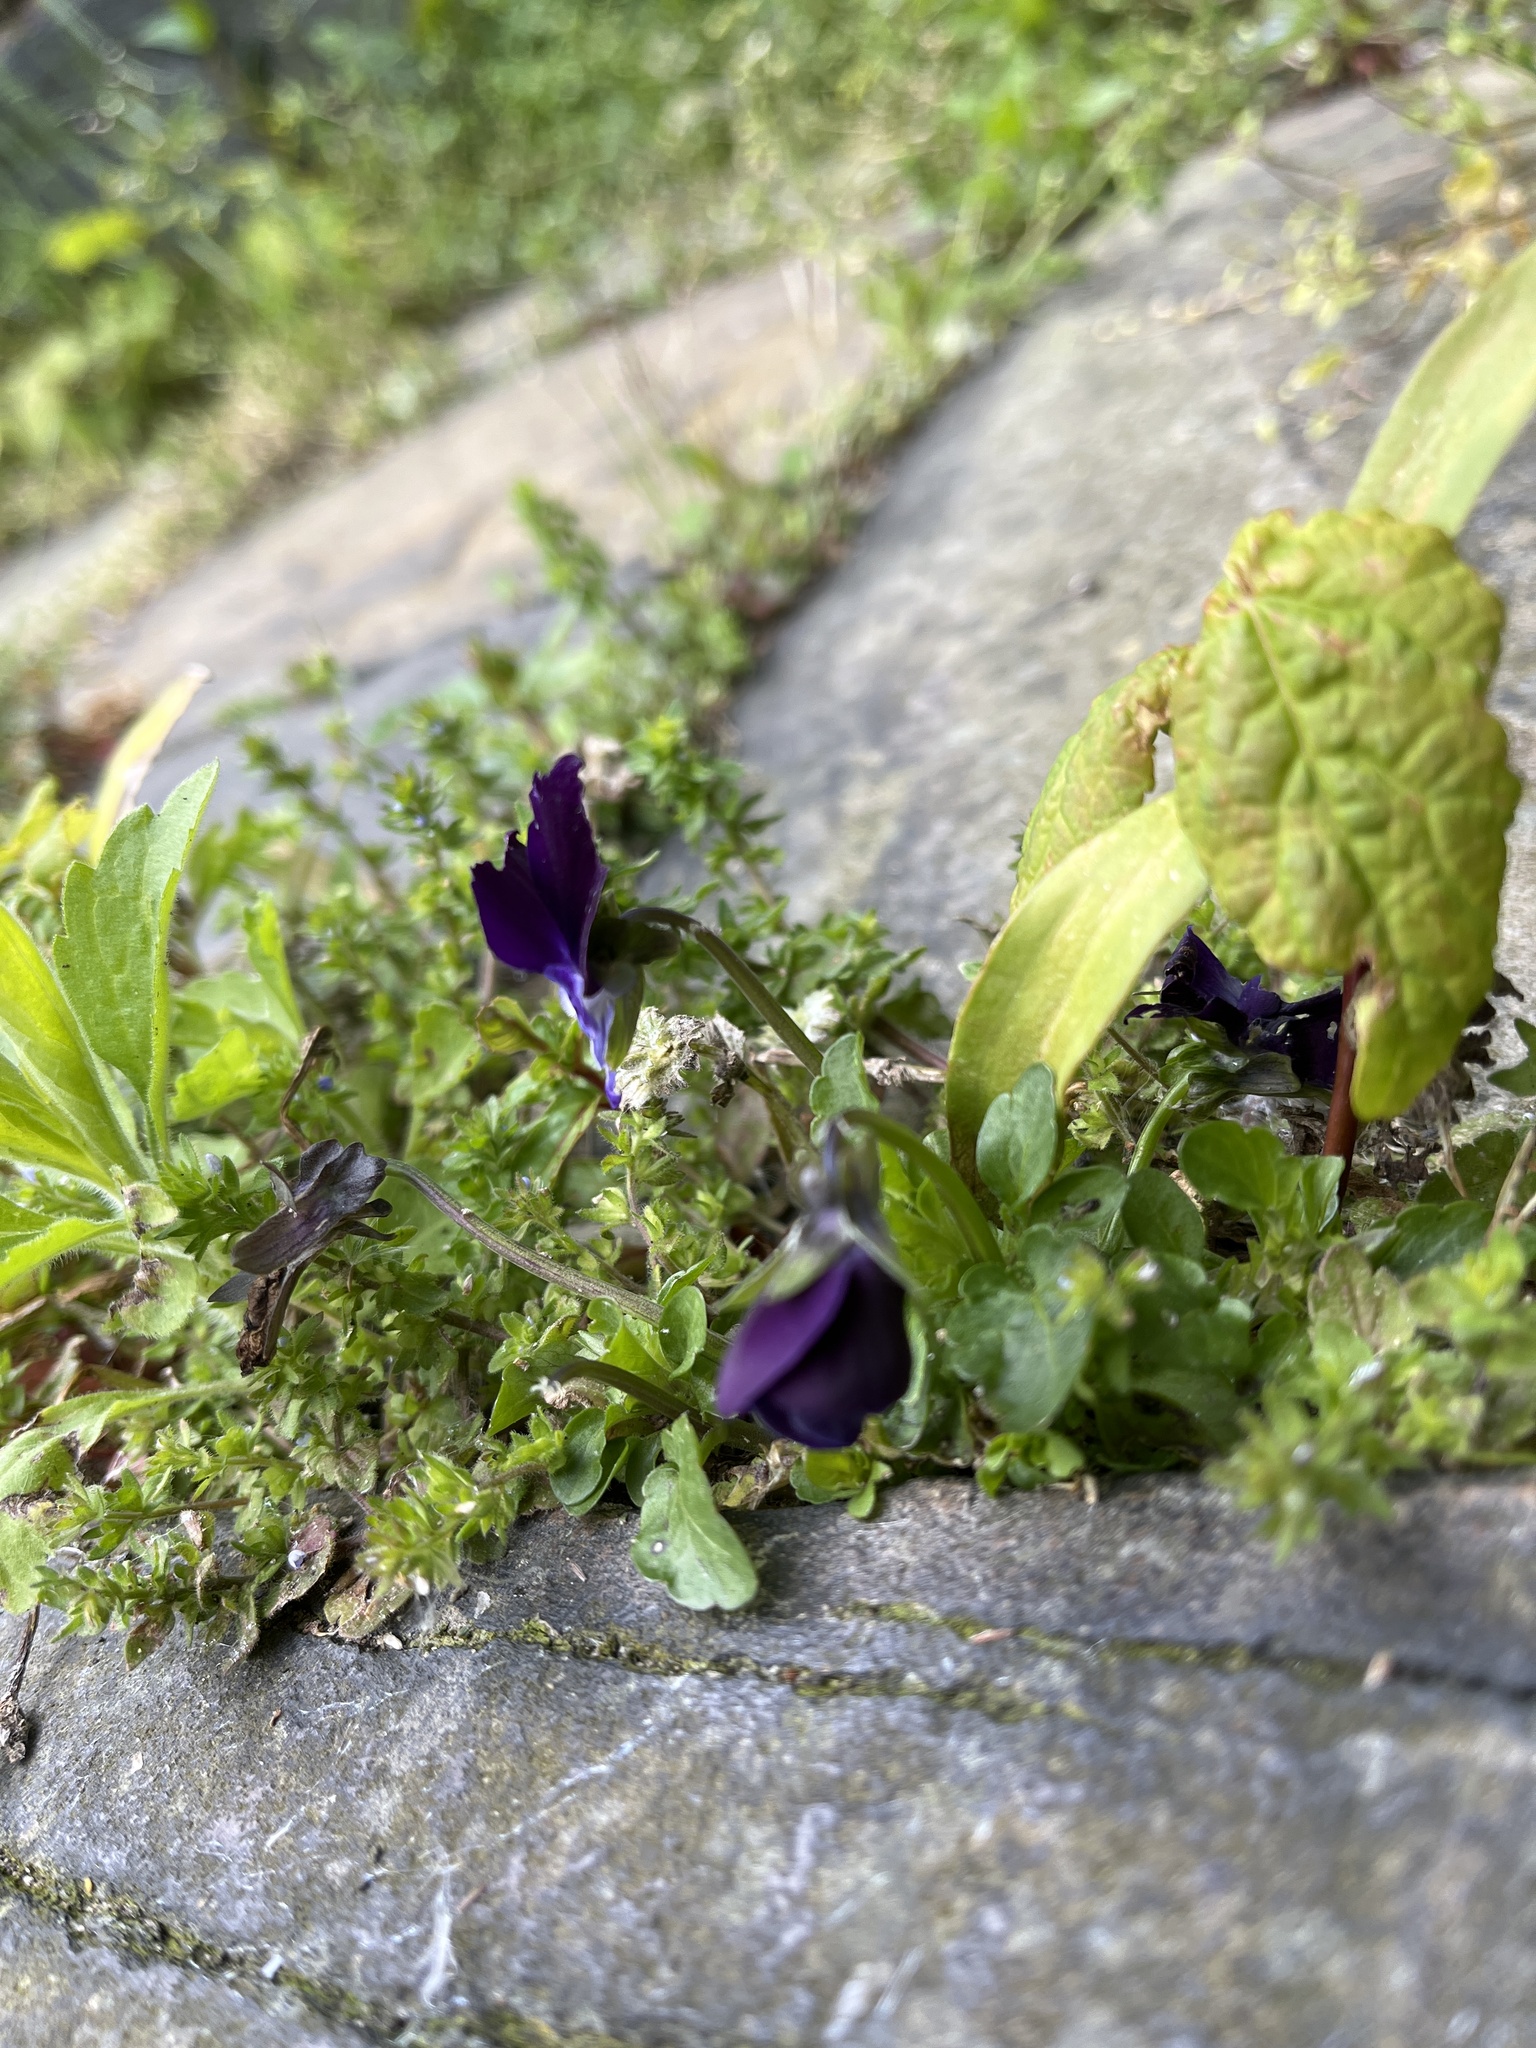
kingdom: Plantae
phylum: Tracheophyta
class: Magnoliopsida
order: Malpighiales
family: Violaceae
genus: Viola
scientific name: Viola wittrockiana
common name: Garden pansy
